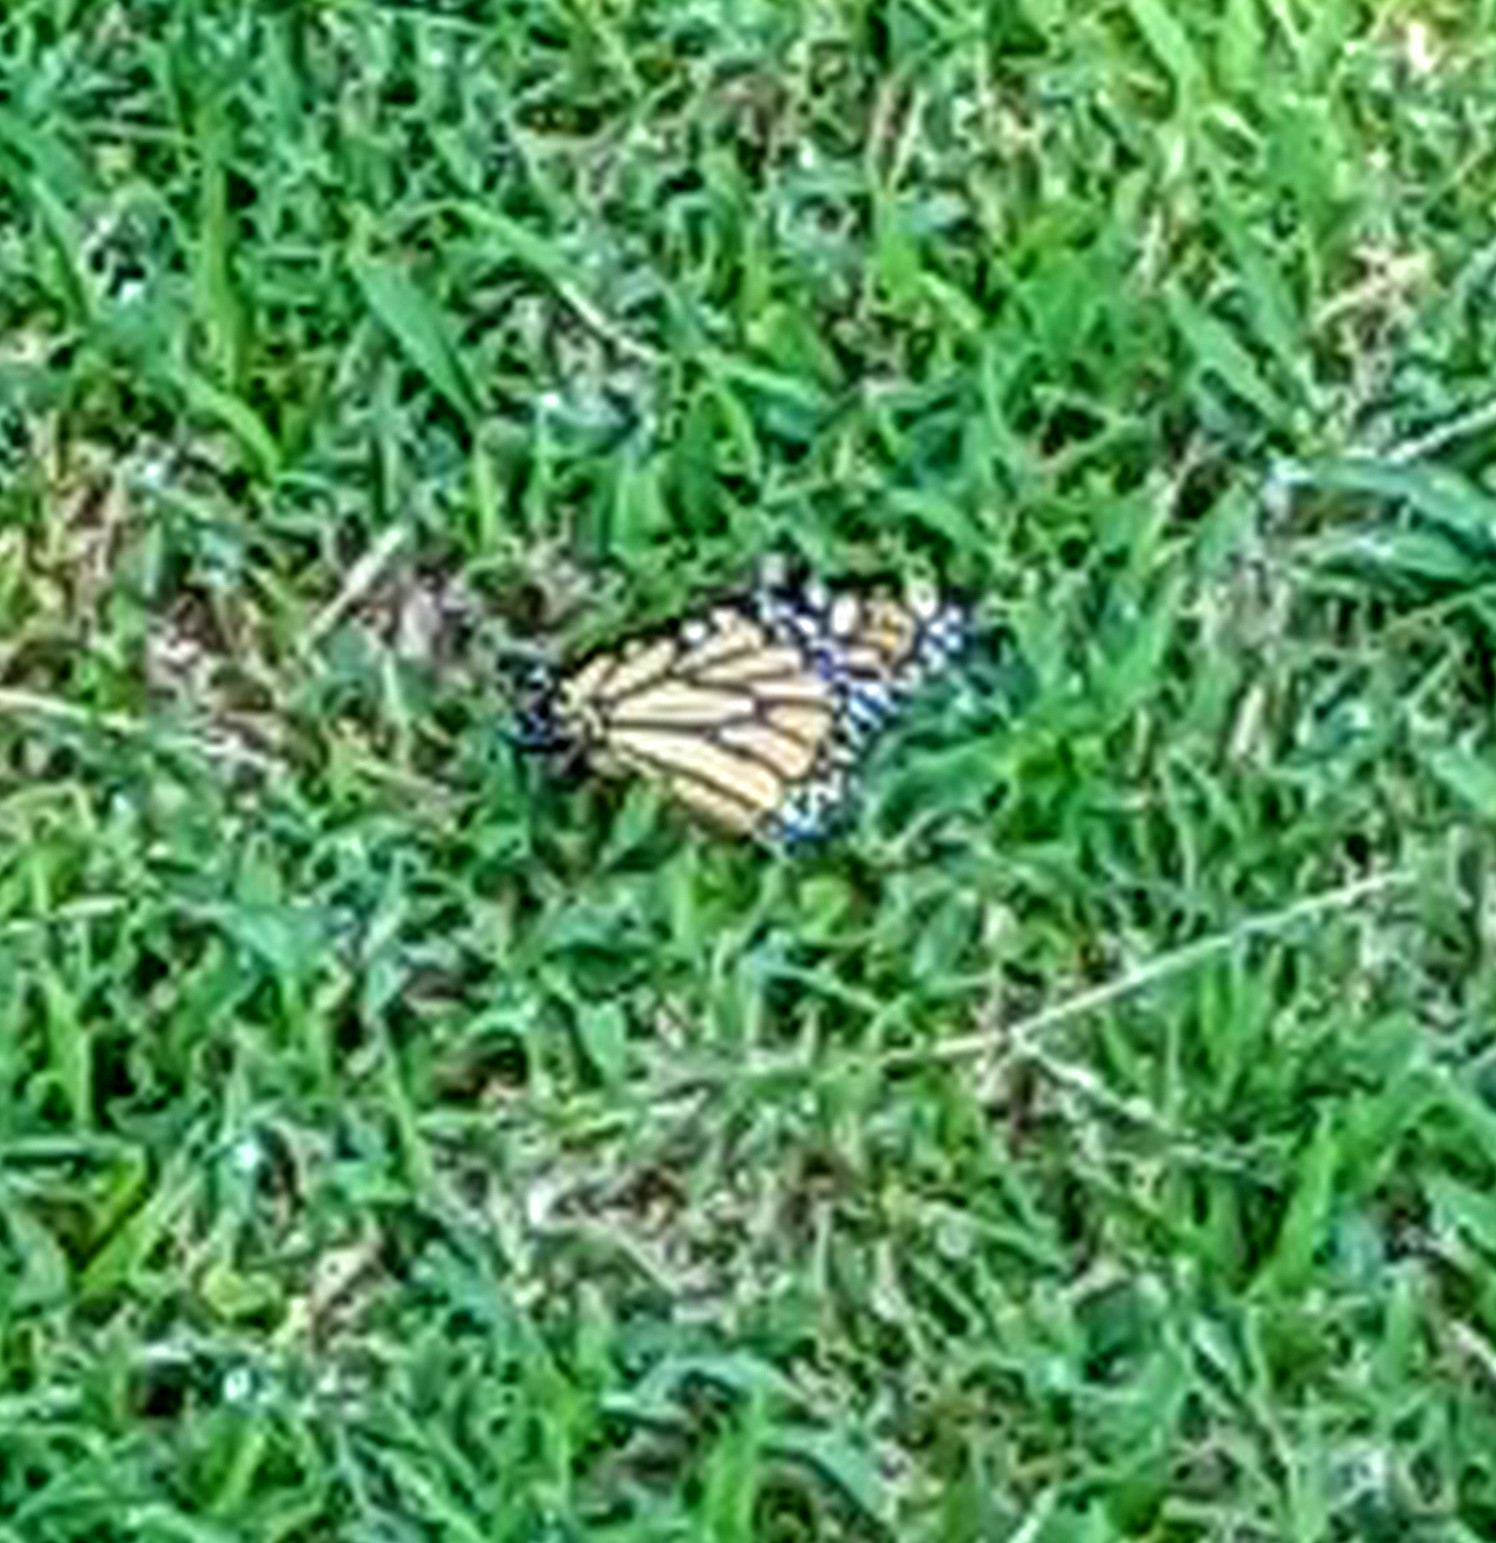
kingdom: Animalia
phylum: Arthropoda
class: Insecta
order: Lepidoptera
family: Nymphalidae
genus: Danaus
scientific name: Danaus plexippus
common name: Monarch
